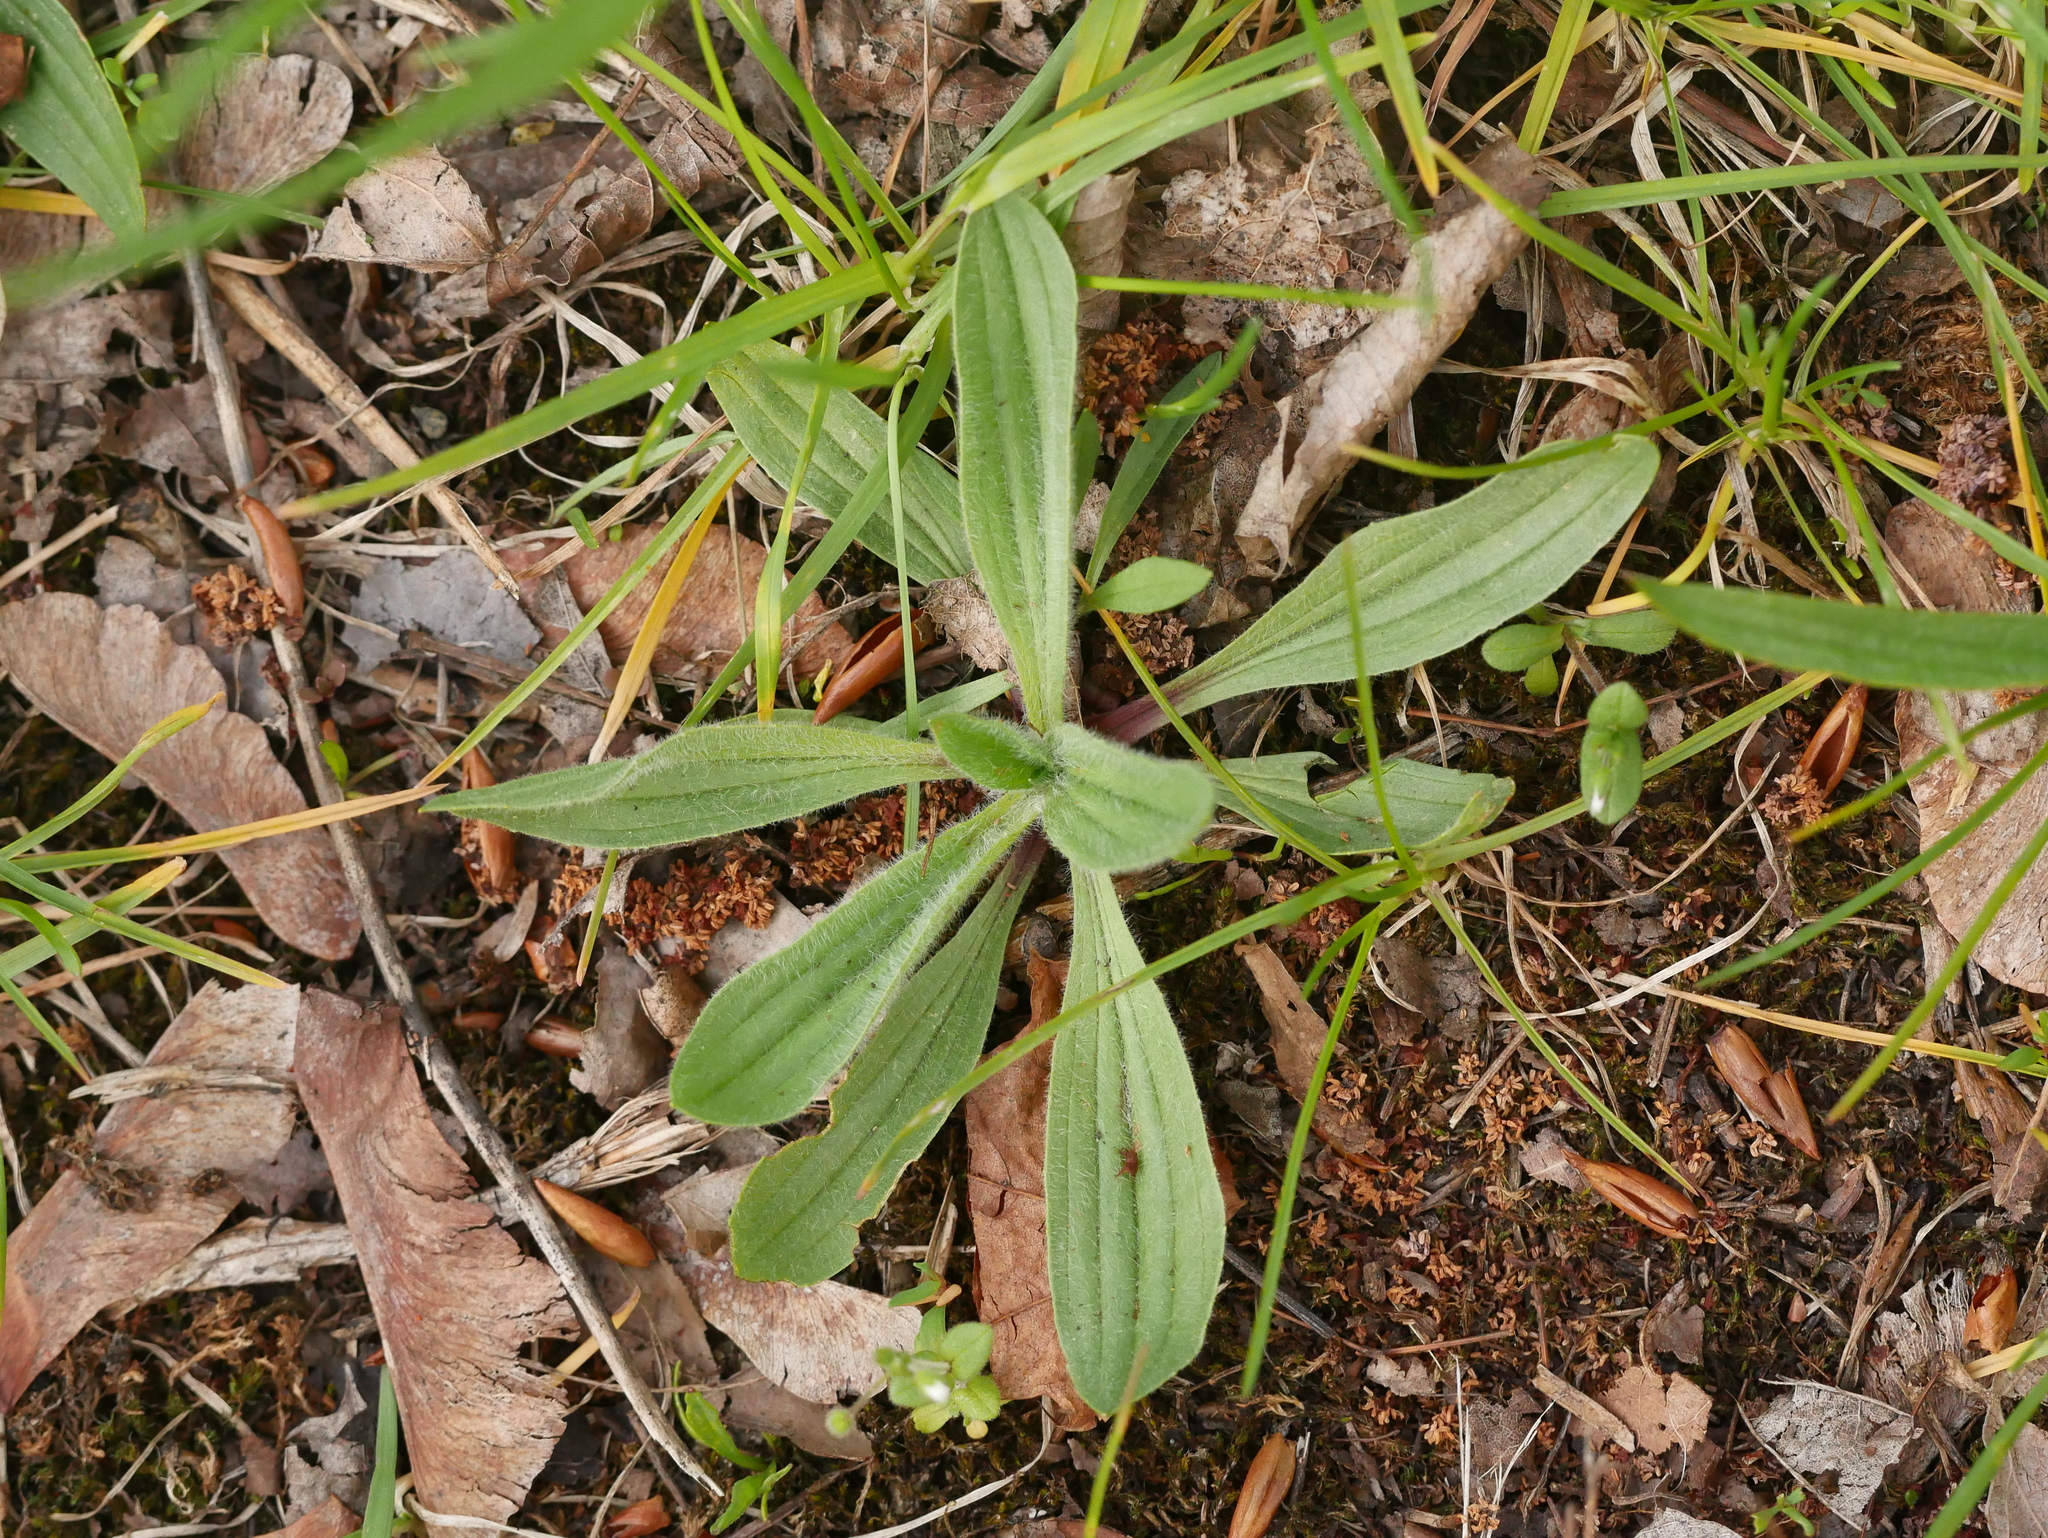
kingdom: Plantae
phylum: Tracheophyta
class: Magnoliopsida
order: Lamiales
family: Plantaginaceae
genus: Plantago
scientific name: Plantago lanceolata
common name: Ribwort plantain
